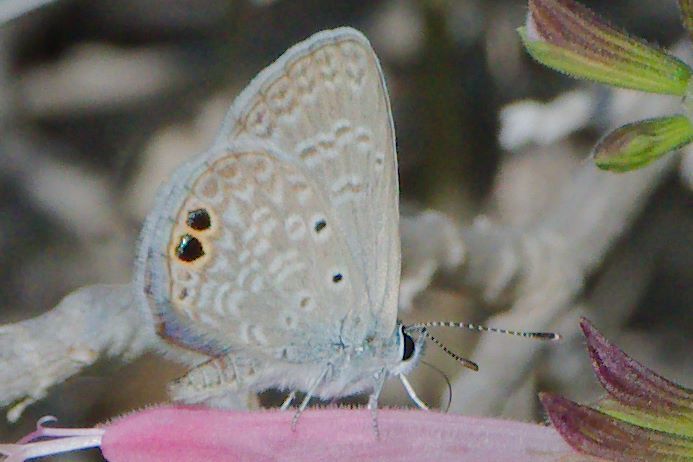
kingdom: Animalia
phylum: Arthropoda
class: Insecta
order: Lepidoptera
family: Lycaenidae
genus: Hemiargus
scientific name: Hemiargus ceraunus
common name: Ceraunus blue
